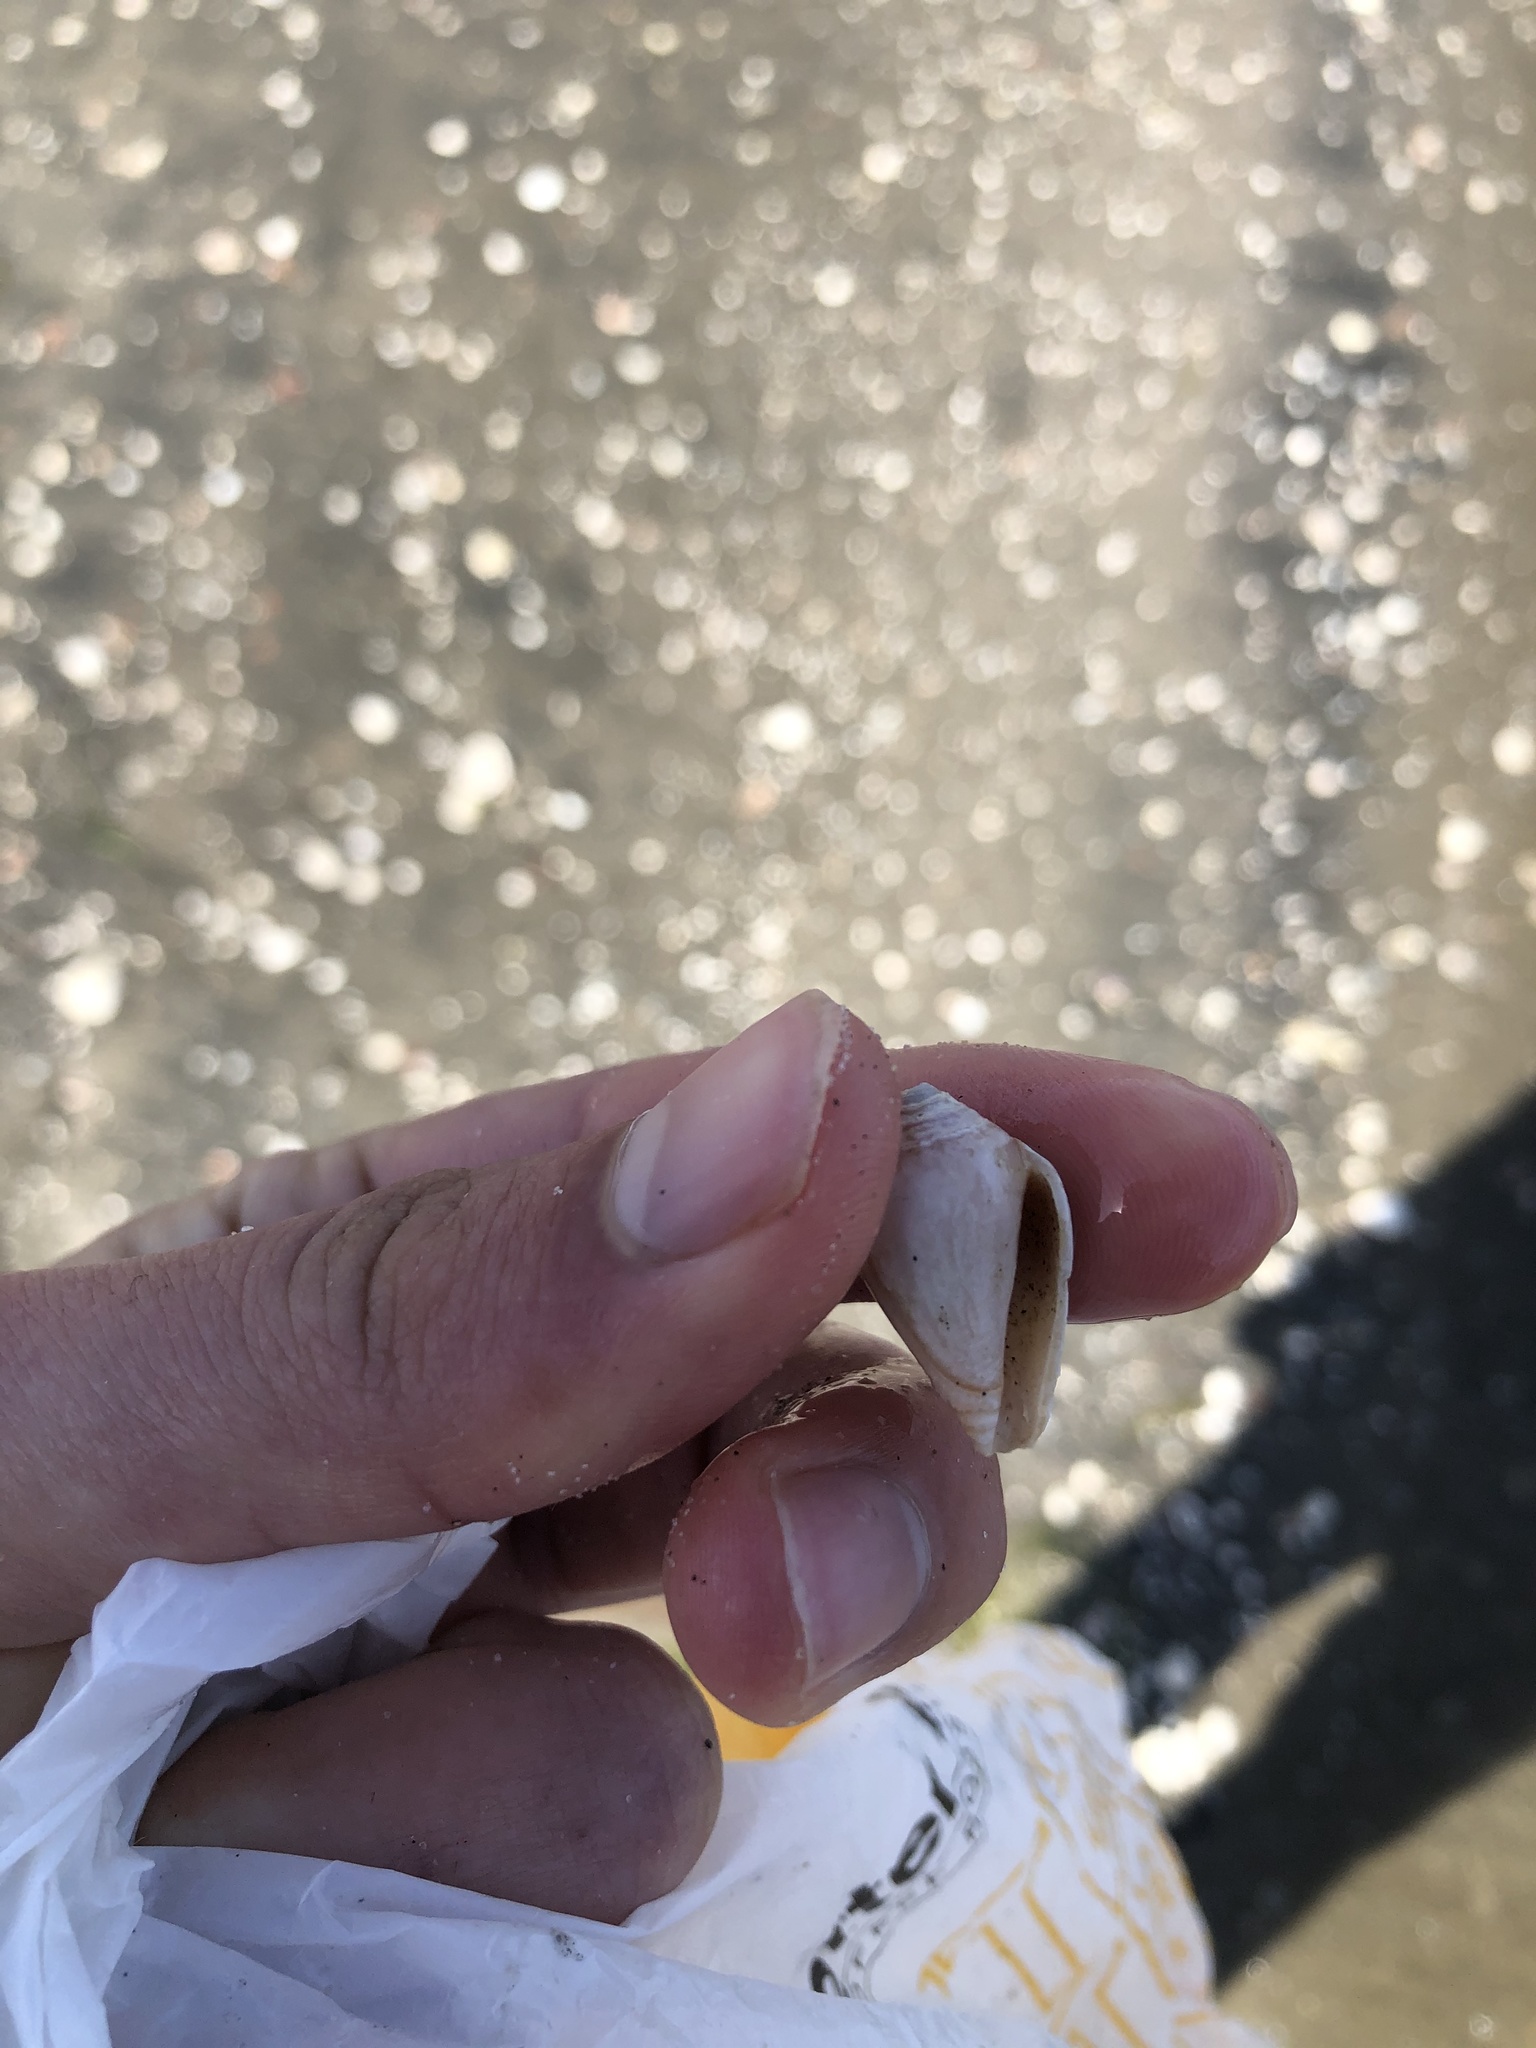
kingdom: Animalia
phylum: Mollusca
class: Gastropoda
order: Neogastropoda
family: Conidae
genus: Californiconus
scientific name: Californiconus californicus
